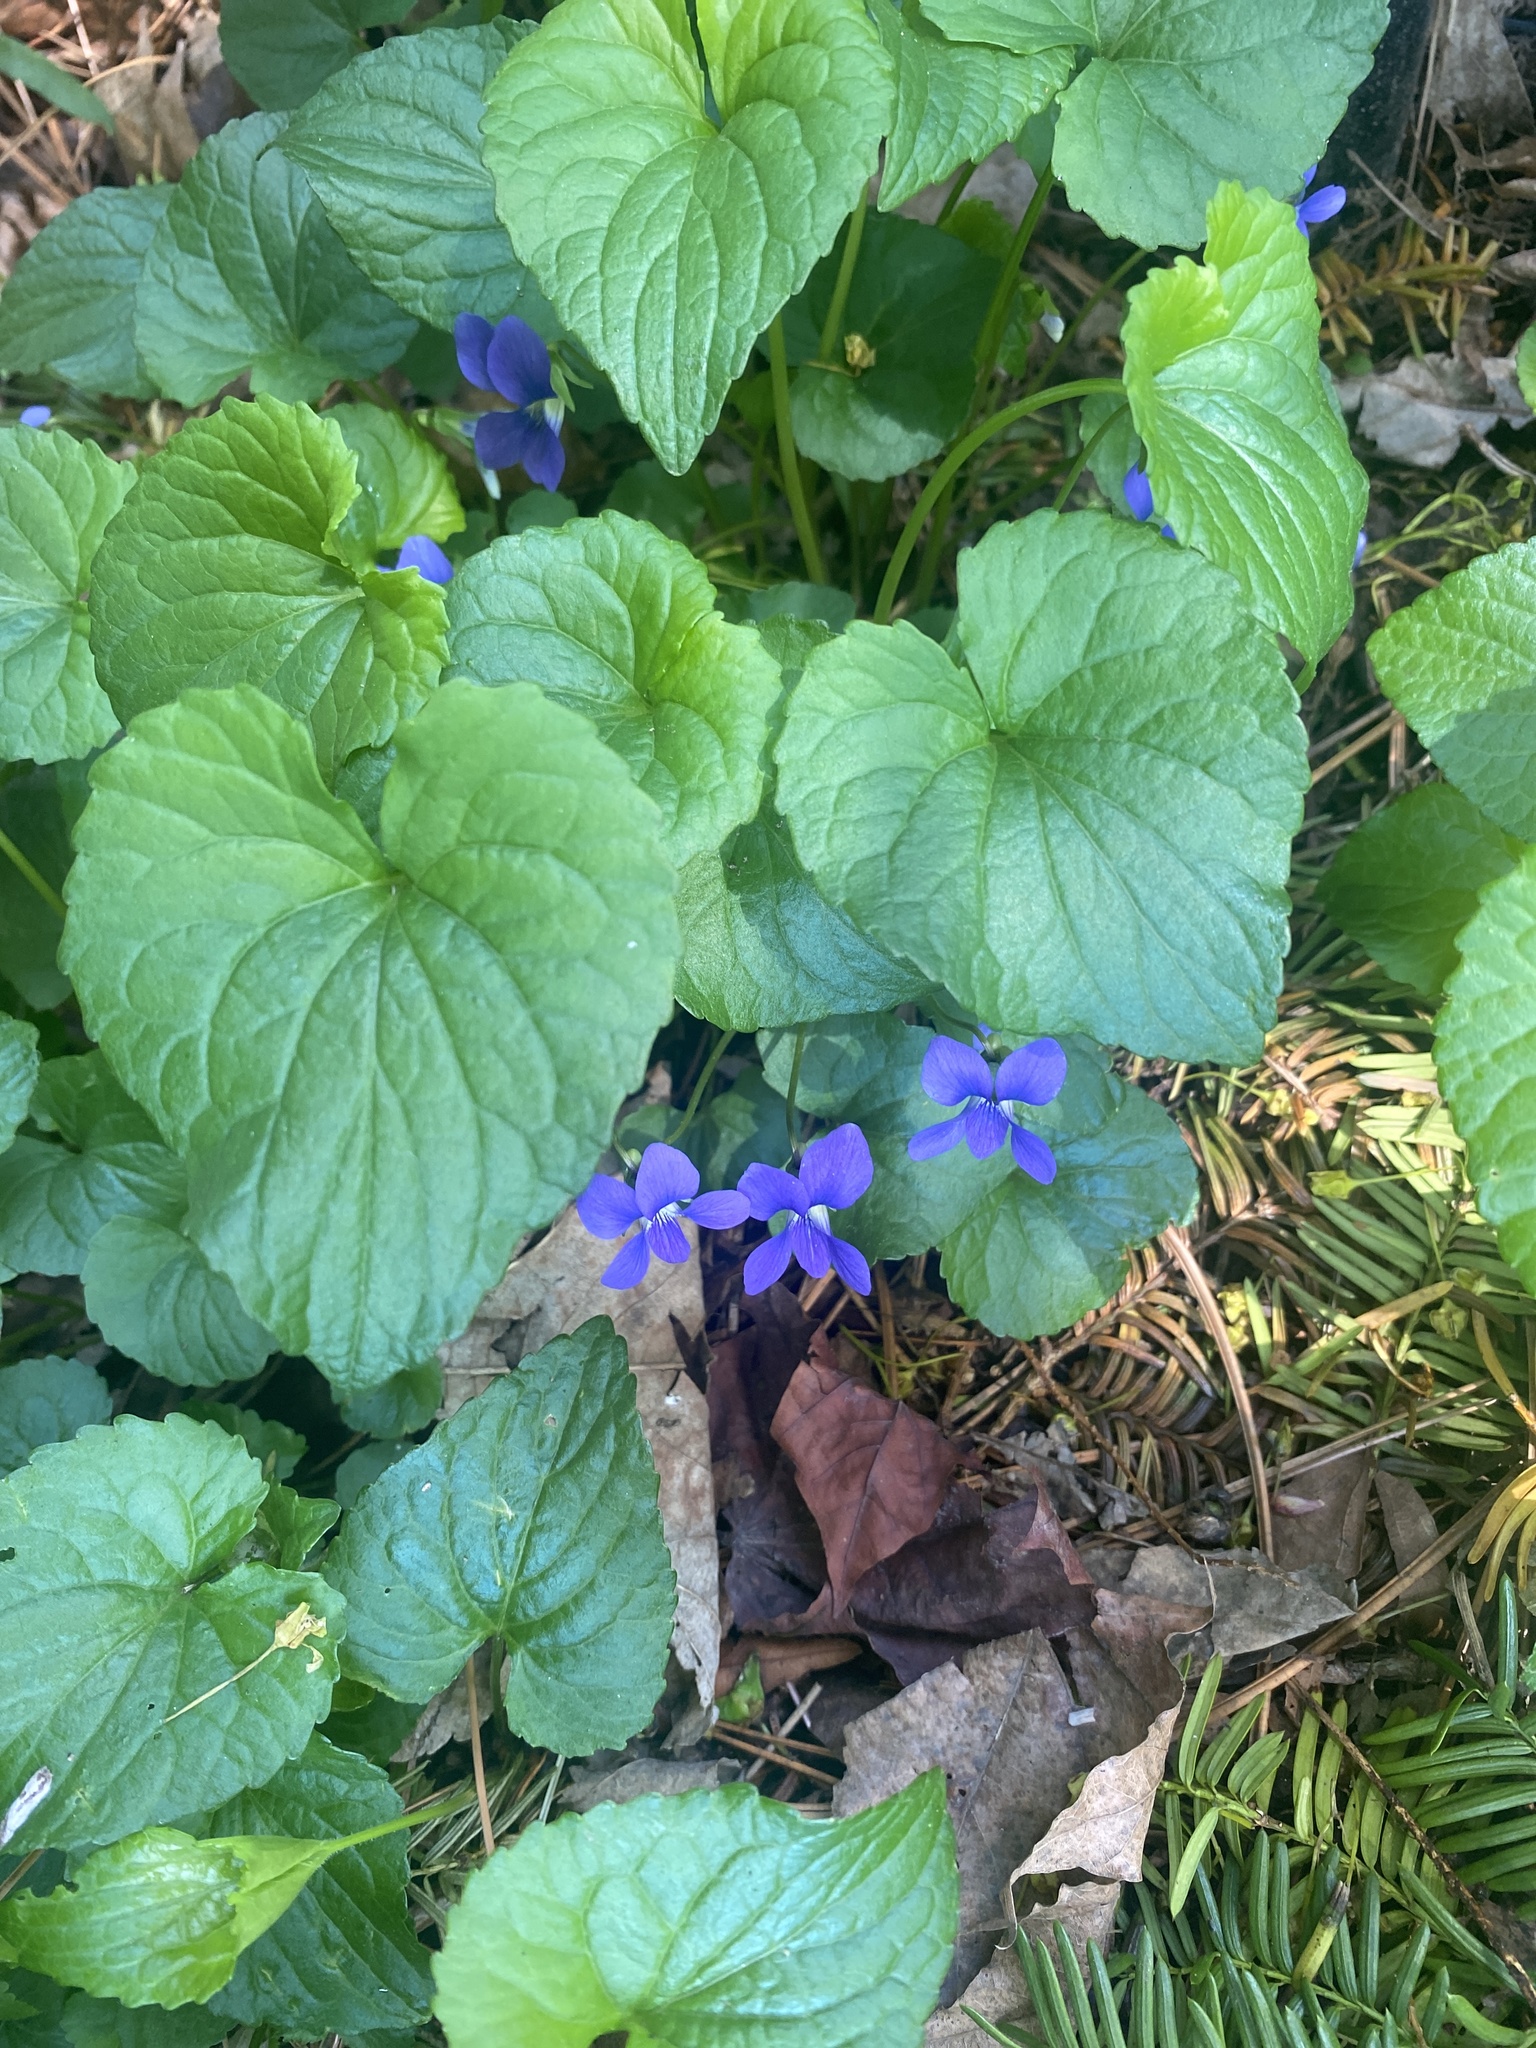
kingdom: Plantae
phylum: Tracheophyta
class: Magnoliopsida
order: Malpighiales
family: Violaceae
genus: Viola
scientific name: Viola sororia
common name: Dooryard violet
